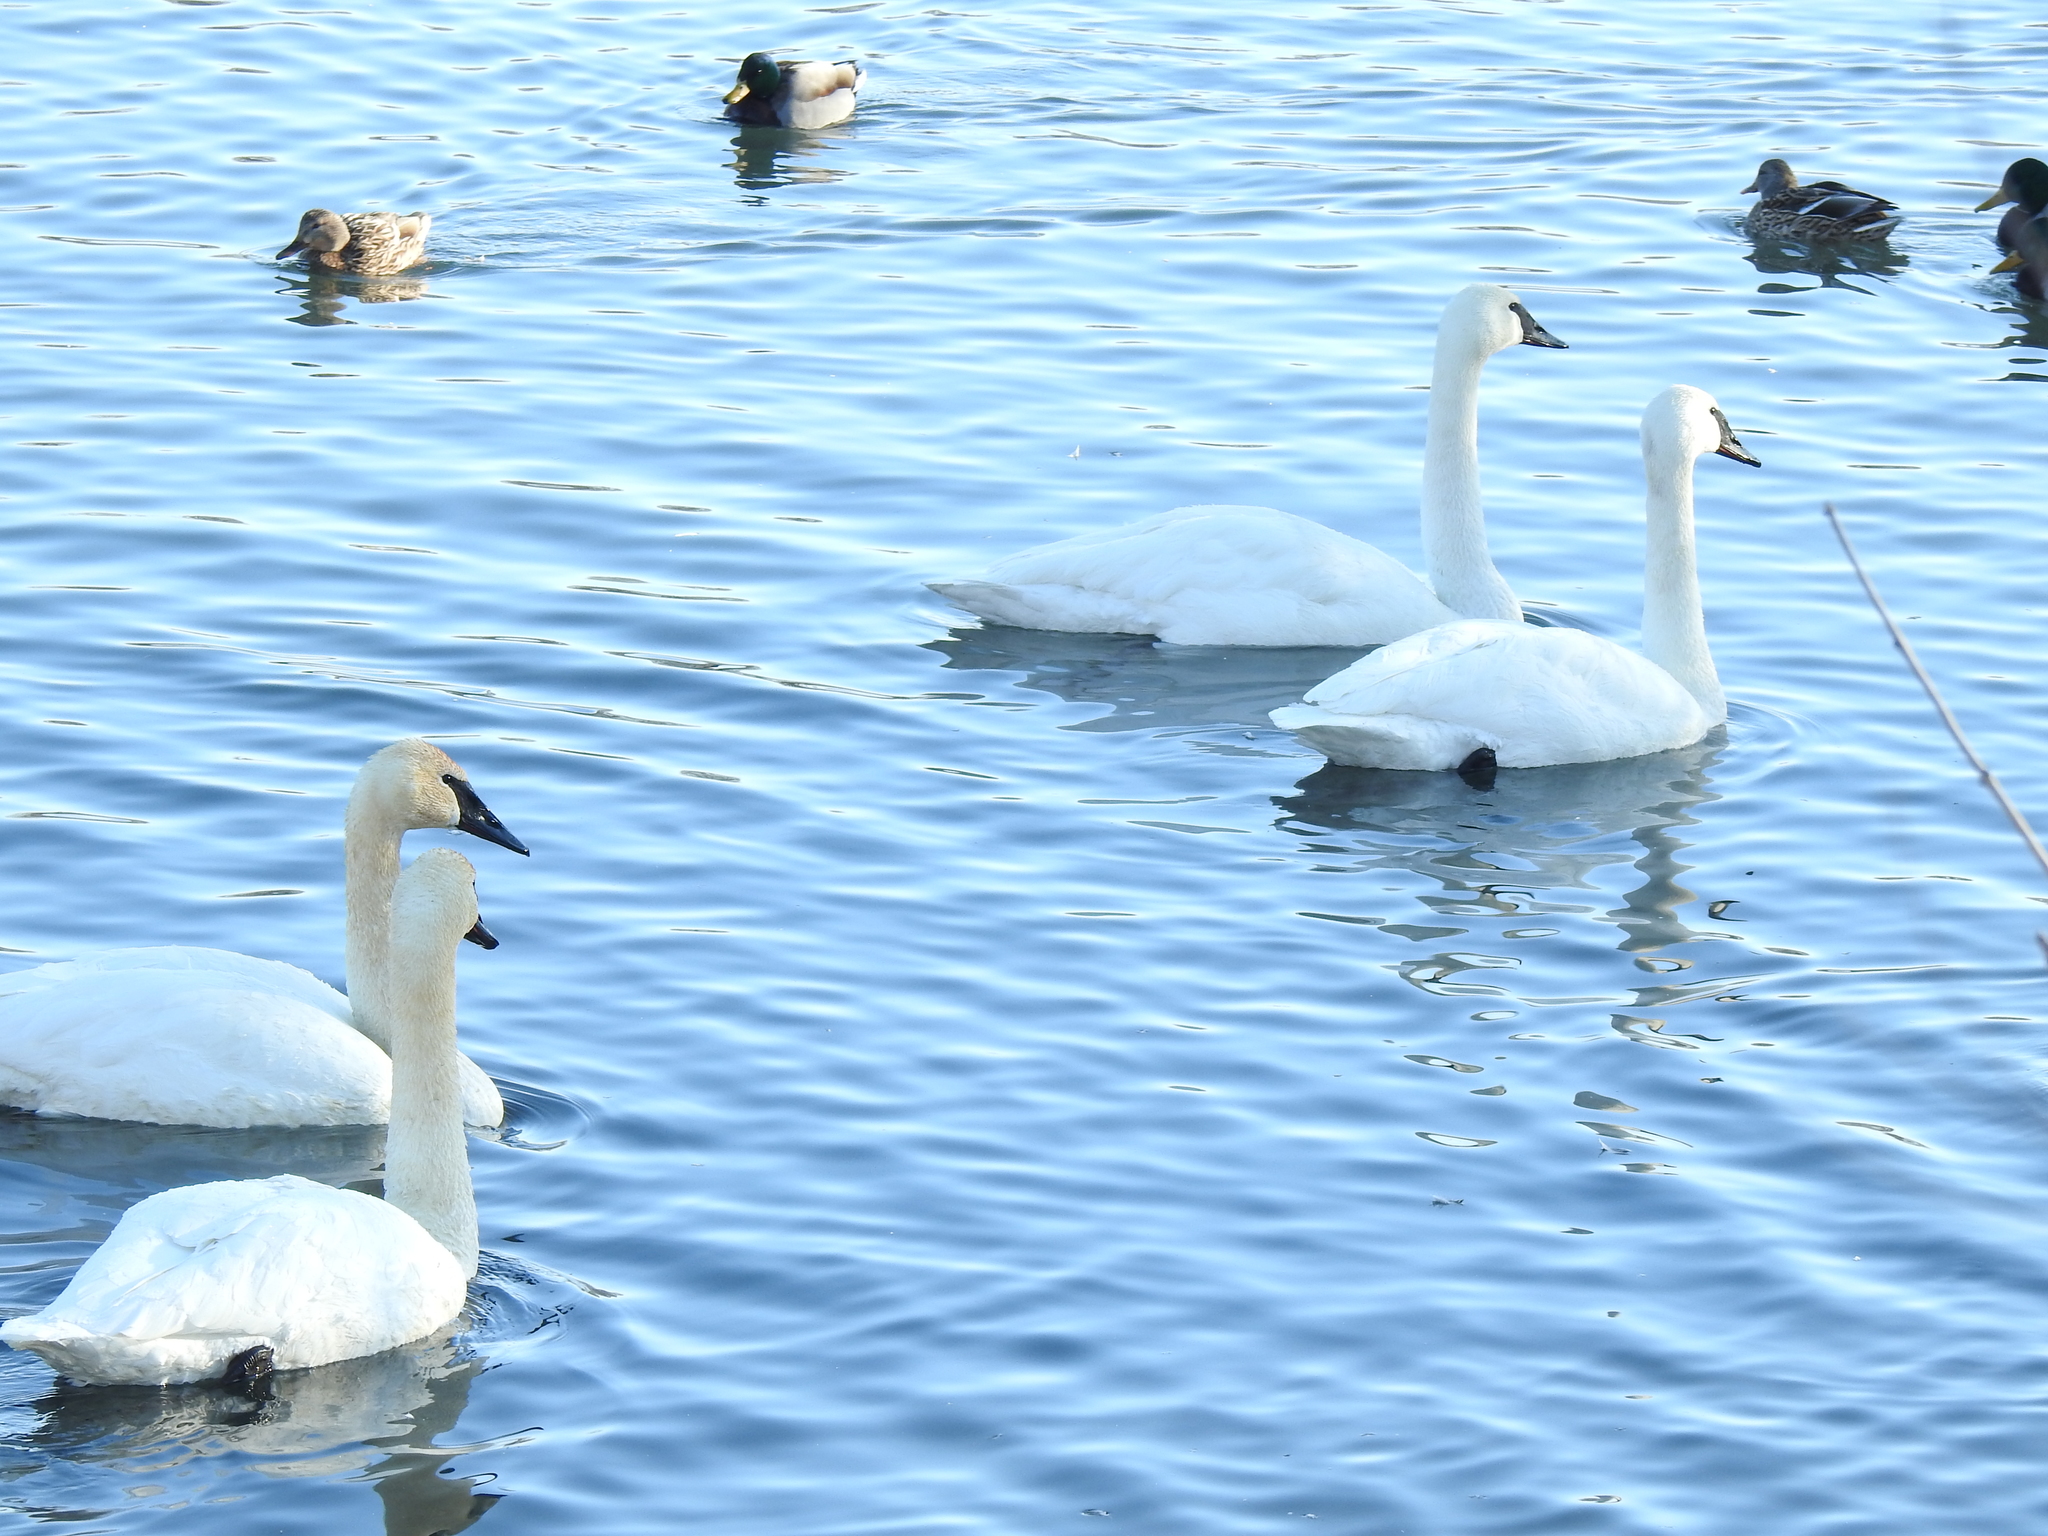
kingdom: Animalia
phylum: Chordata
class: Aves
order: Anseriformes
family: Anatidae
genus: Cygnus
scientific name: Cygnus buccinator
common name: Trumpeter swan
